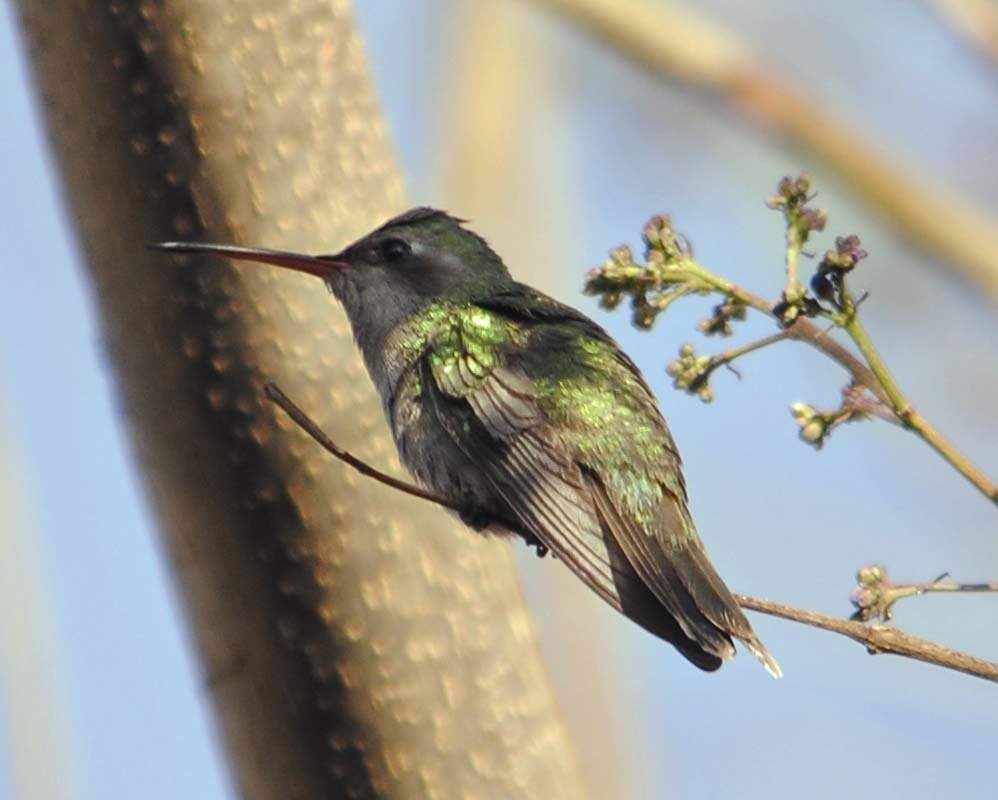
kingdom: Animalia
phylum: Chordata
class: Aves
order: Apodiformes
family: Trochilidae
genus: Cynanthus
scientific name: Cynanthus latirostris
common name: Broad-billed hummingbird
